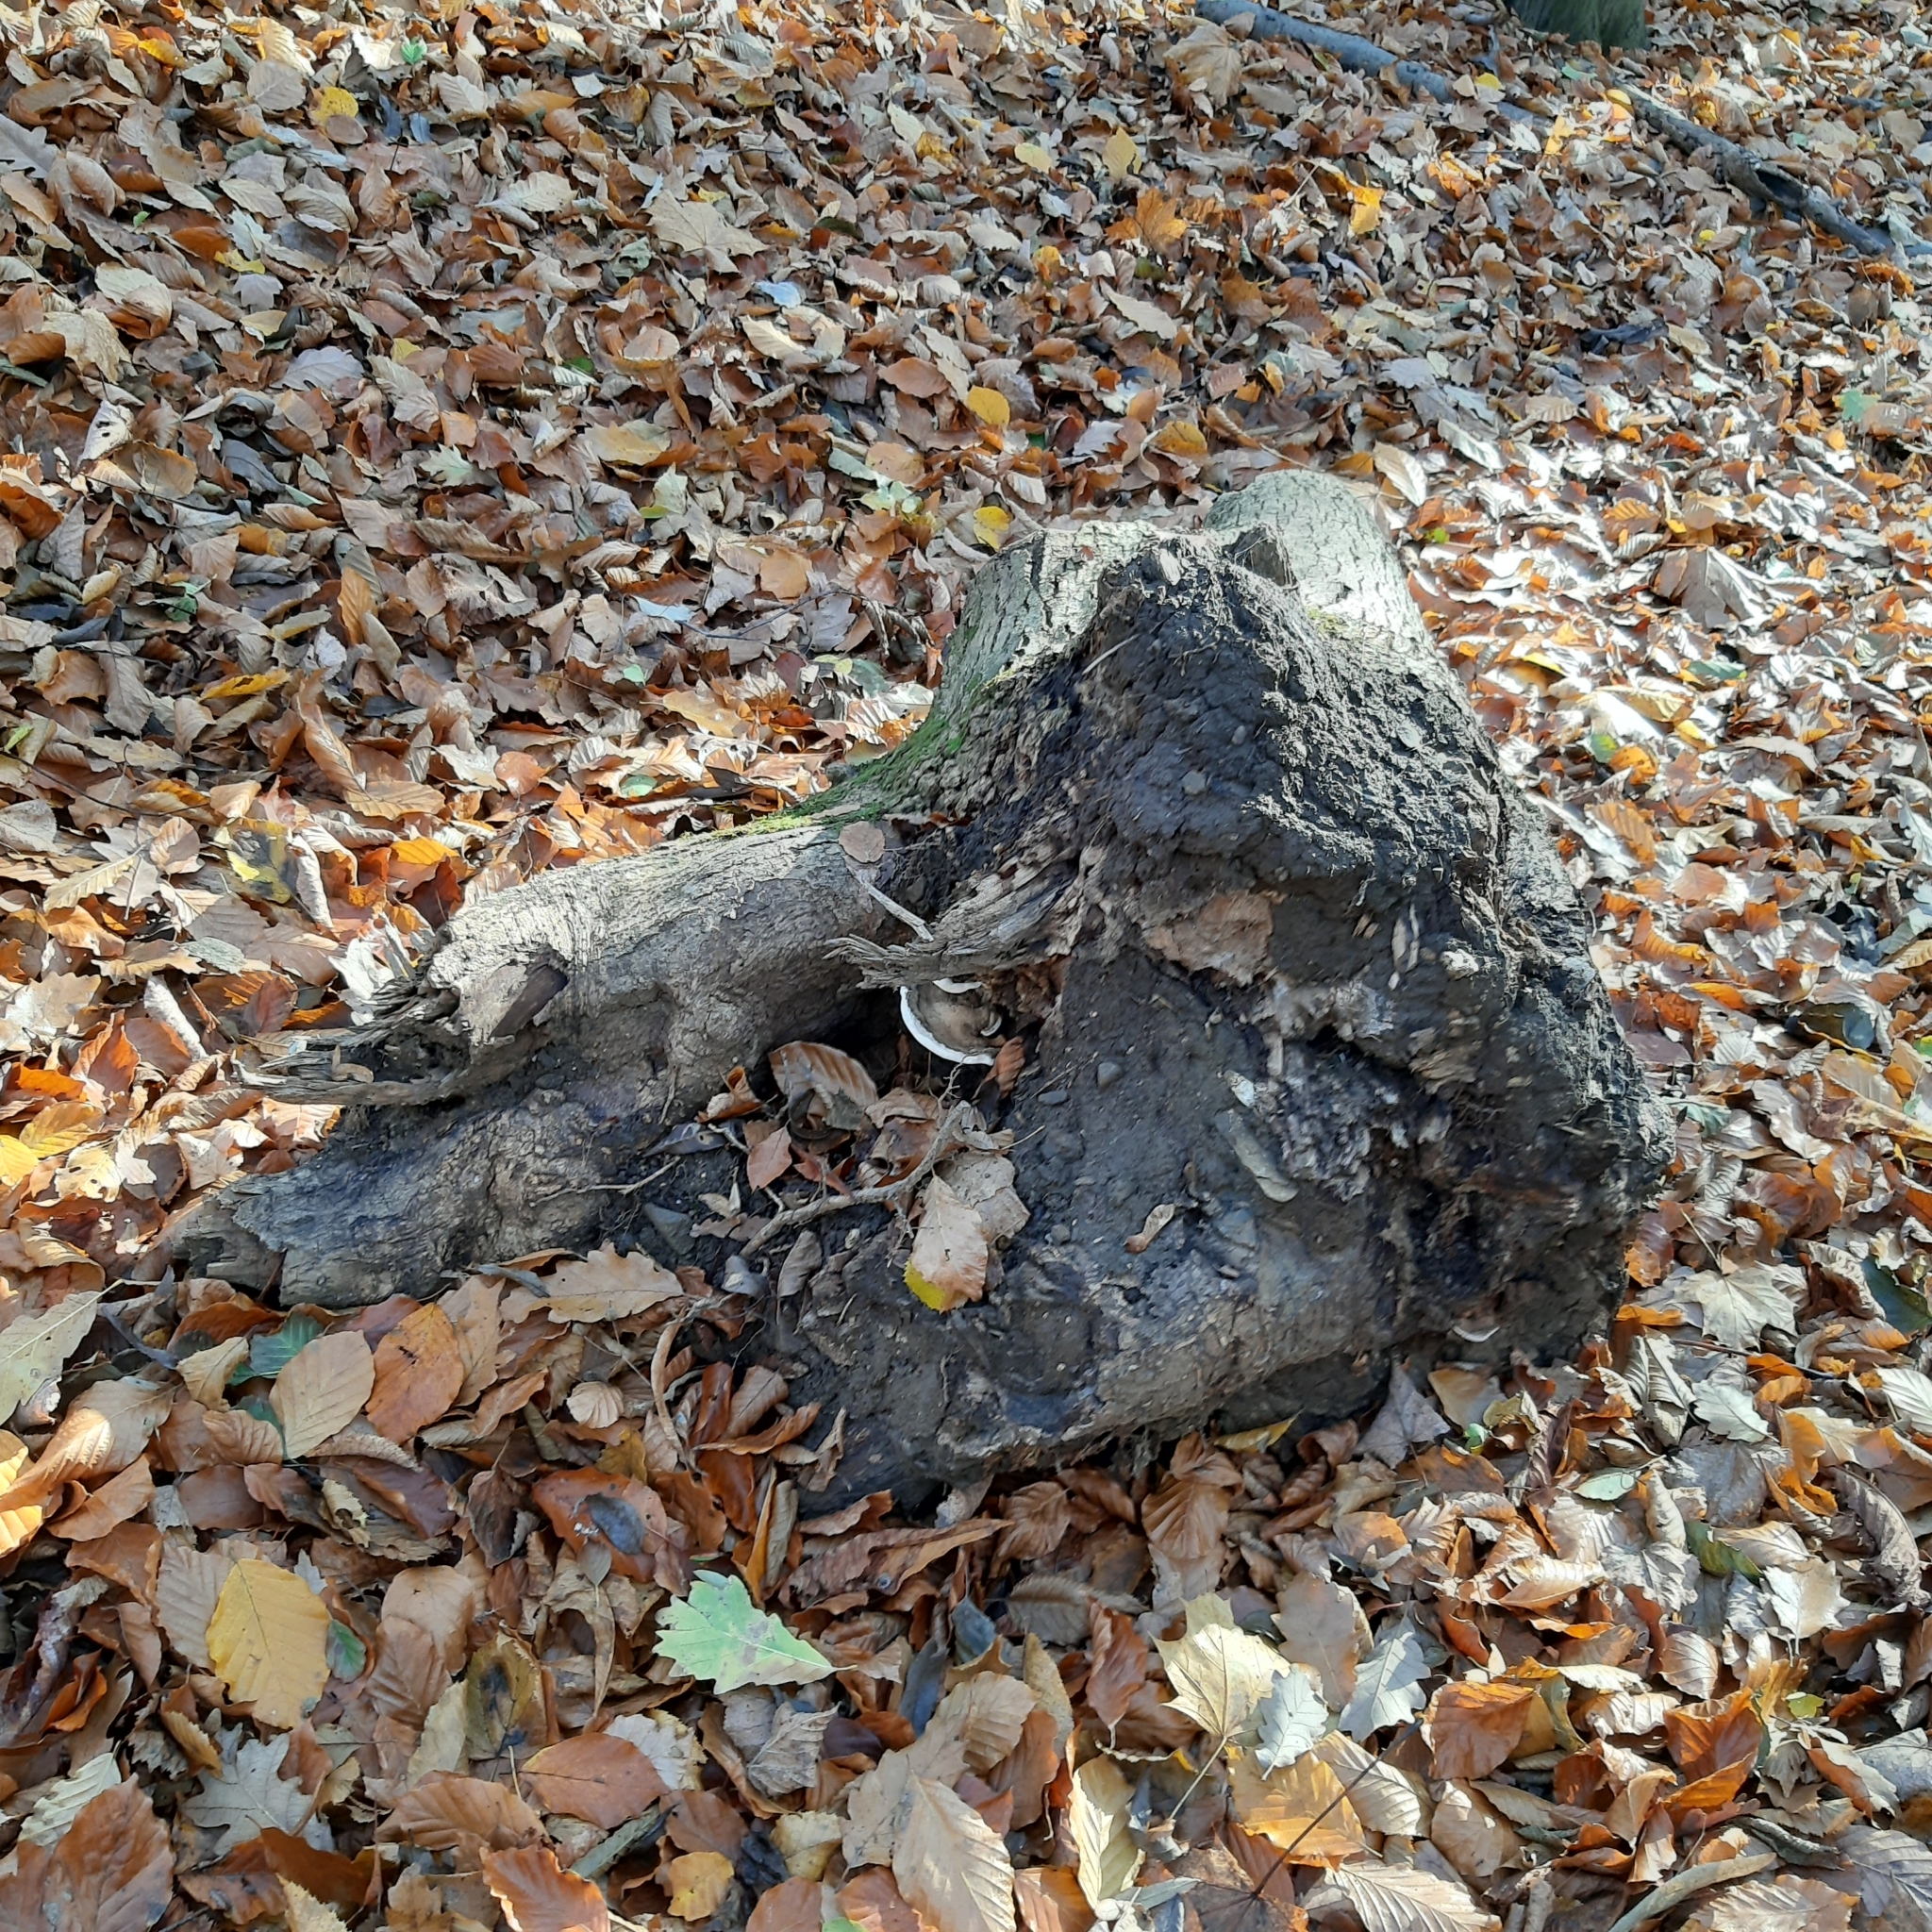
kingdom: Fungi
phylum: Basidiomycota
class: Agaricomycetes
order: Polyporales
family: Polyporaceae
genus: Ganoderma
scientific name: Ganoderma adspersum
